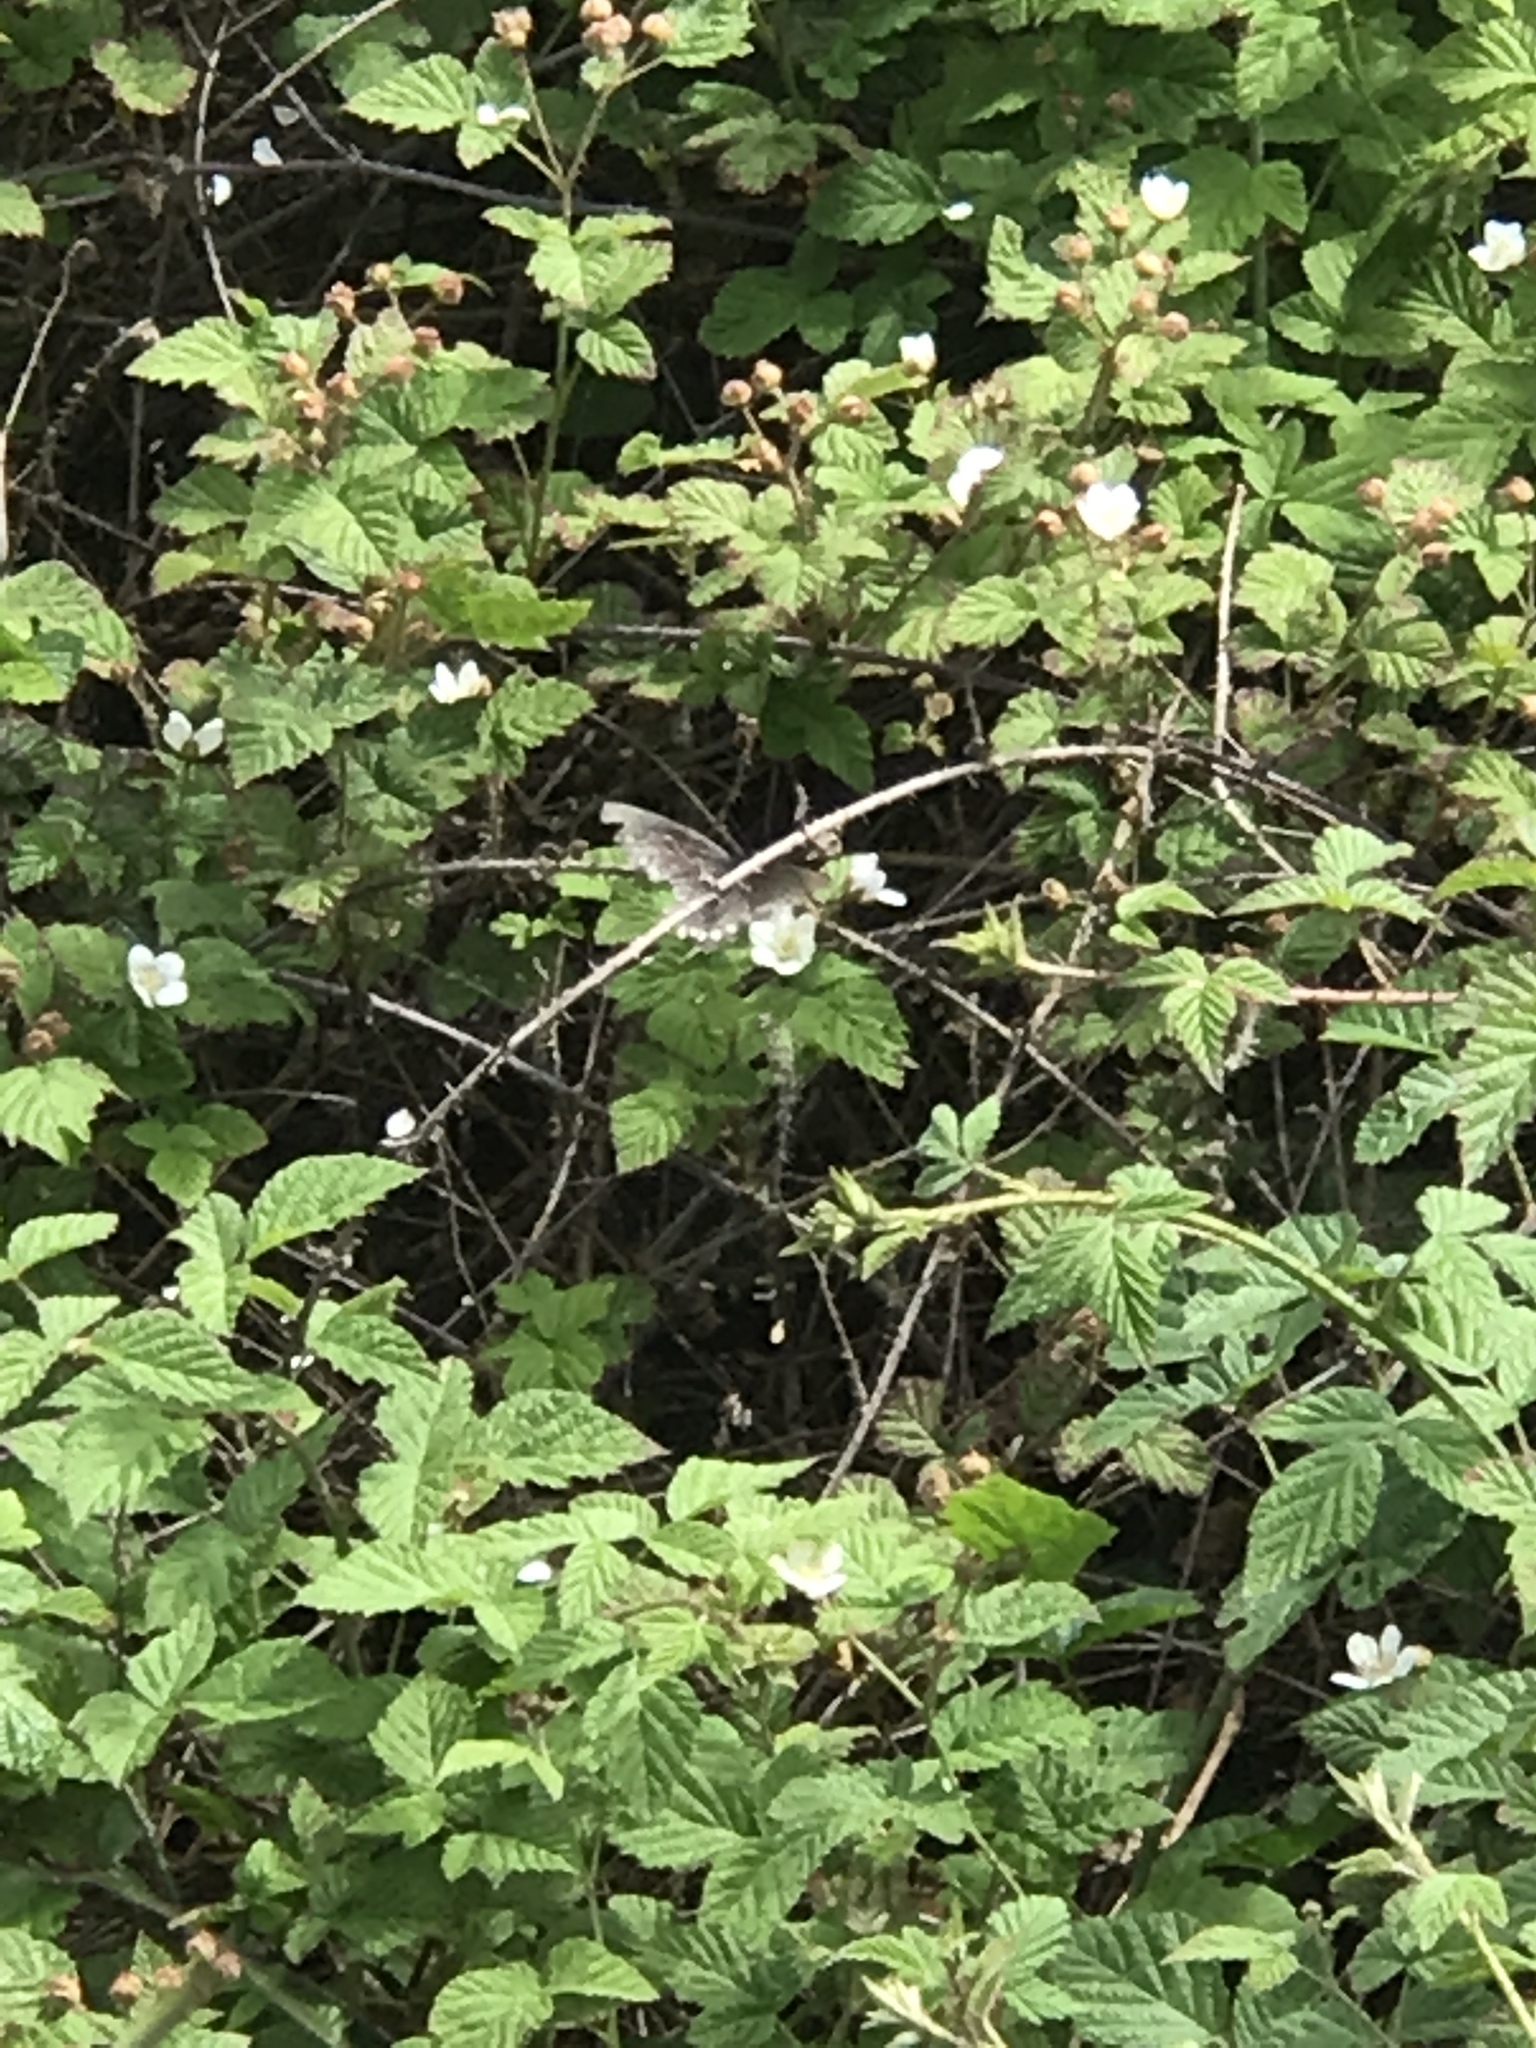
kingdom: Animalia
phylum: Arthropoda
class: Insecta
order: Lepidoptera
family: Papilionidae
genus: Battus
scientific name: Battus philenor
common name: Pipevine swallowtail
